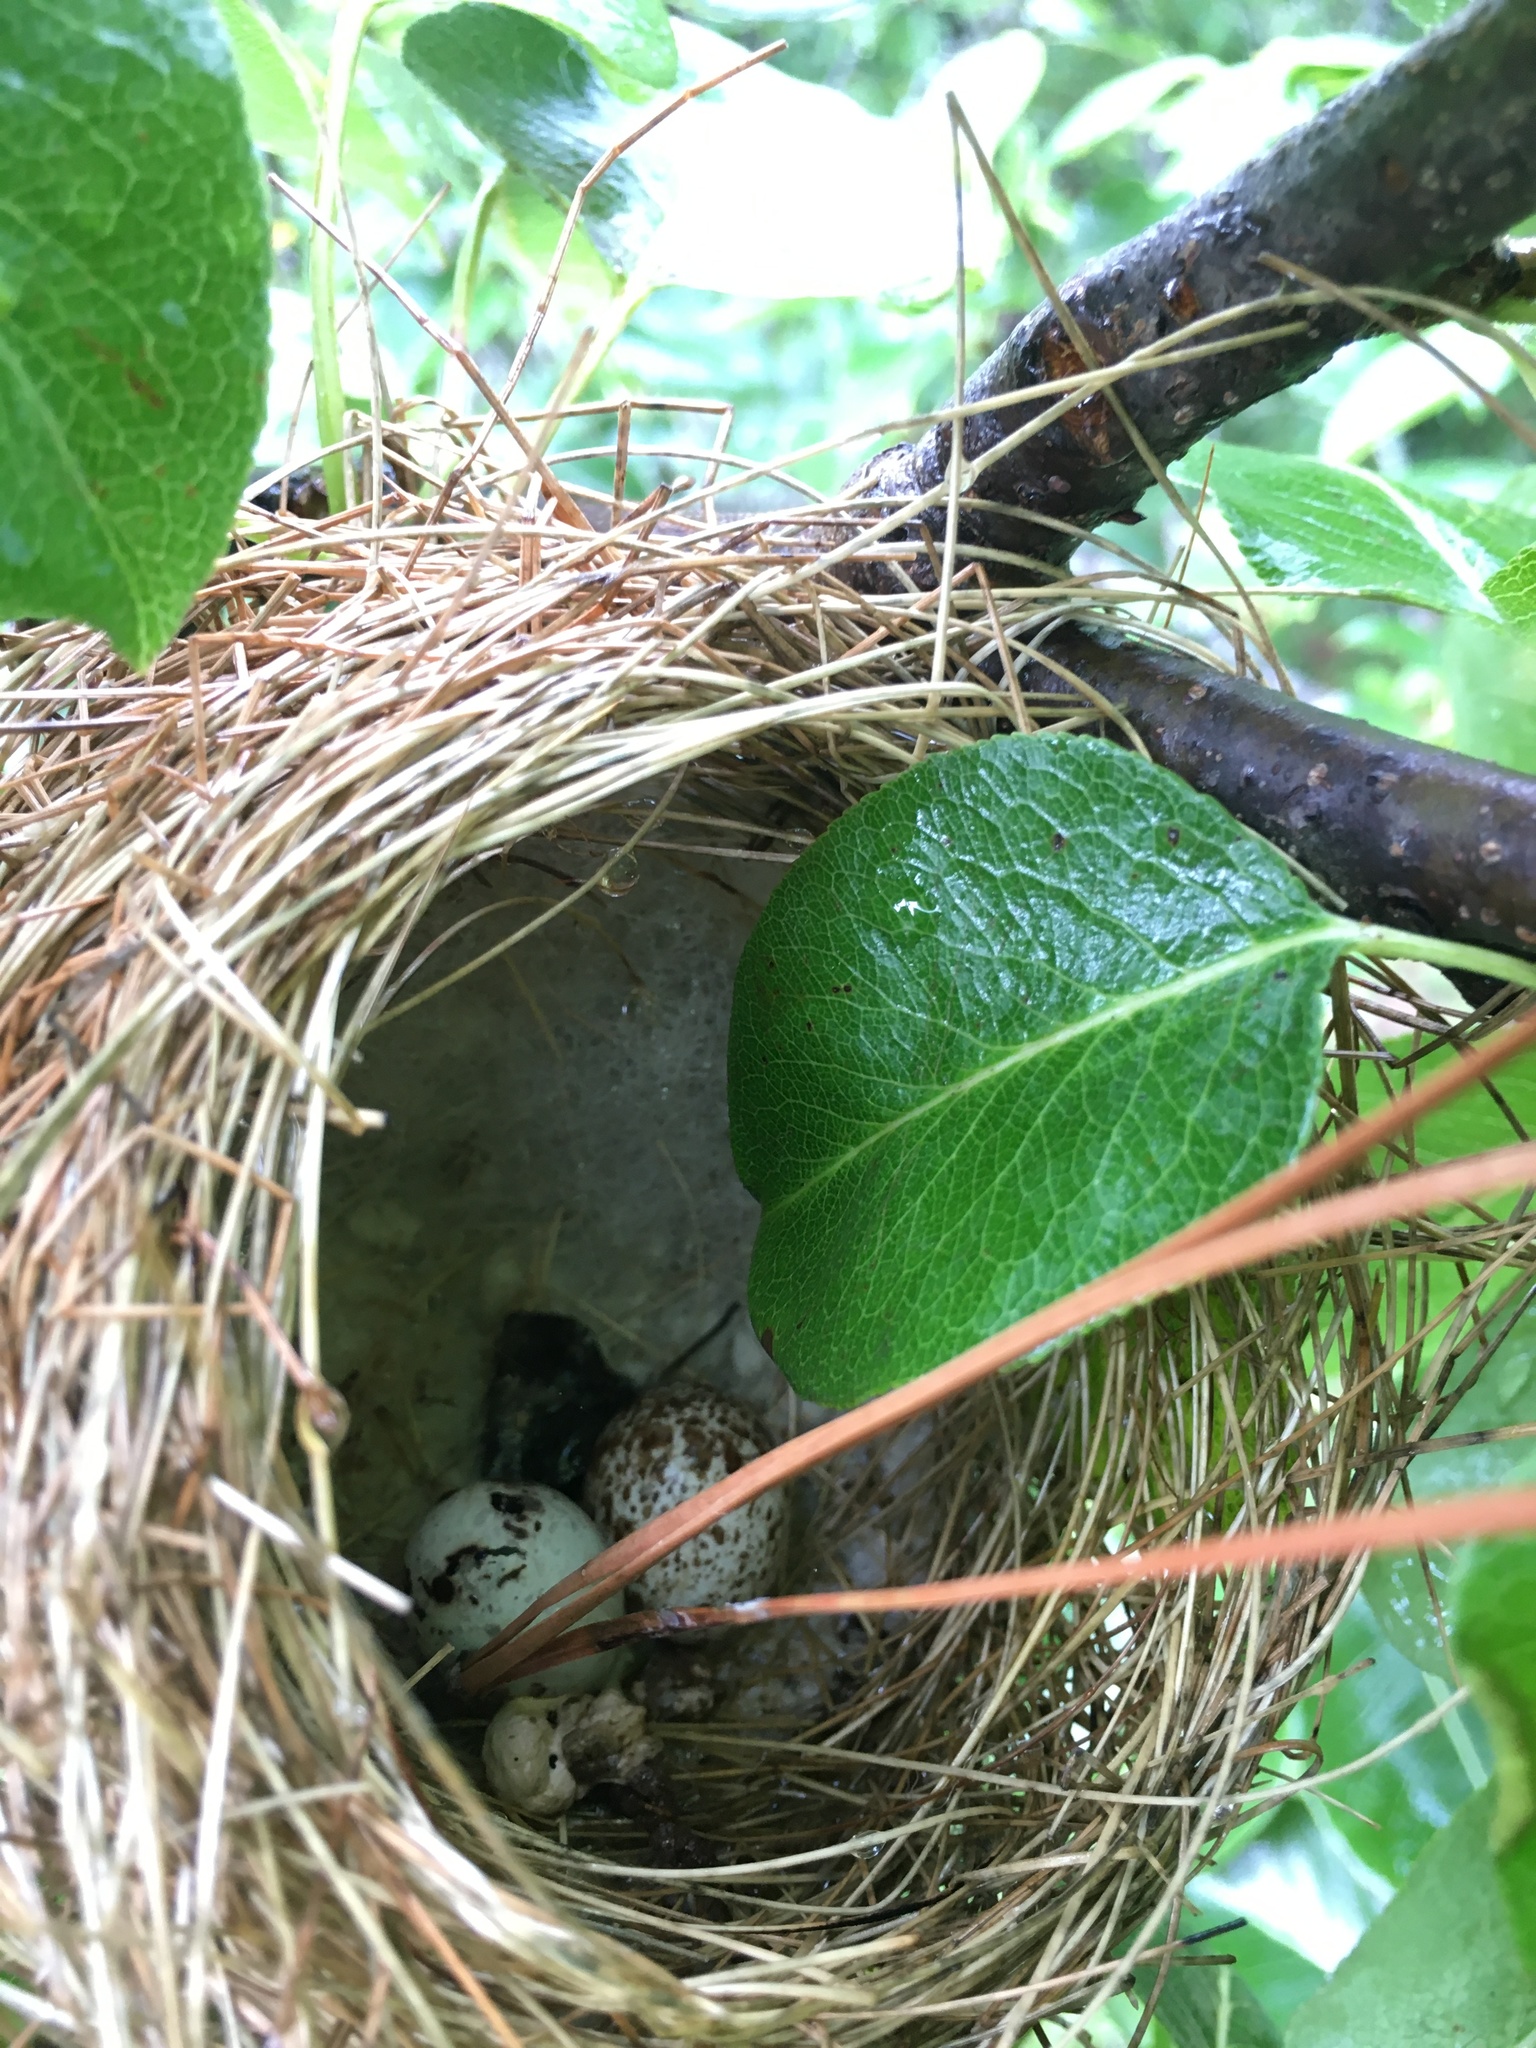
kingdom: Animalia
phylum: Chordata
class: Aves
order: Passeriformes
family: Troglodytidae
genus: Thryothorus
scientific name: Thryothorus ludovicianus
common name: Carolina wren
